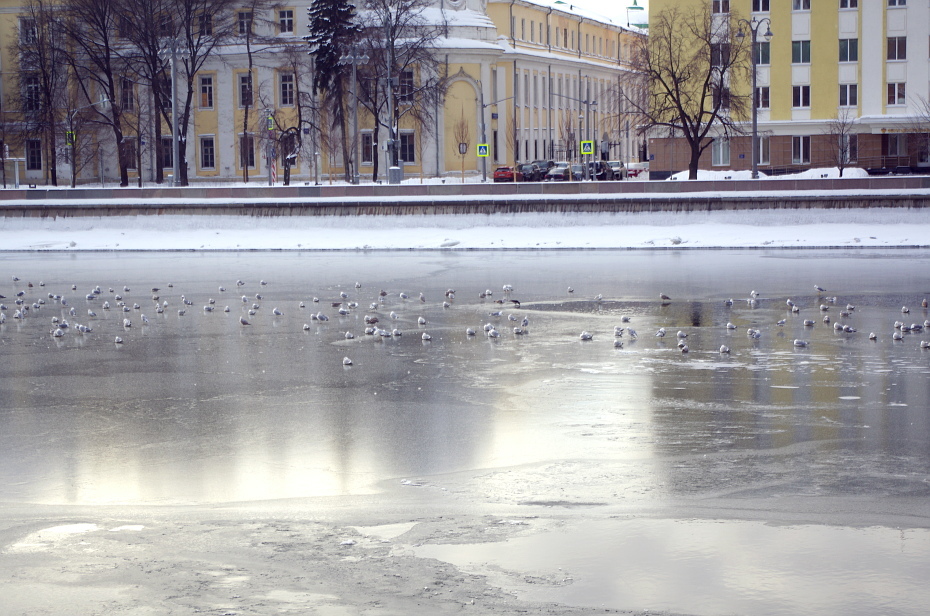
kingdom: Animalia
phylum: Chordata
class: Aves
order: Charadriiformes
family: Laridae
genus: Larus
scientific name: Larus argentatus
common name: Herring gull
